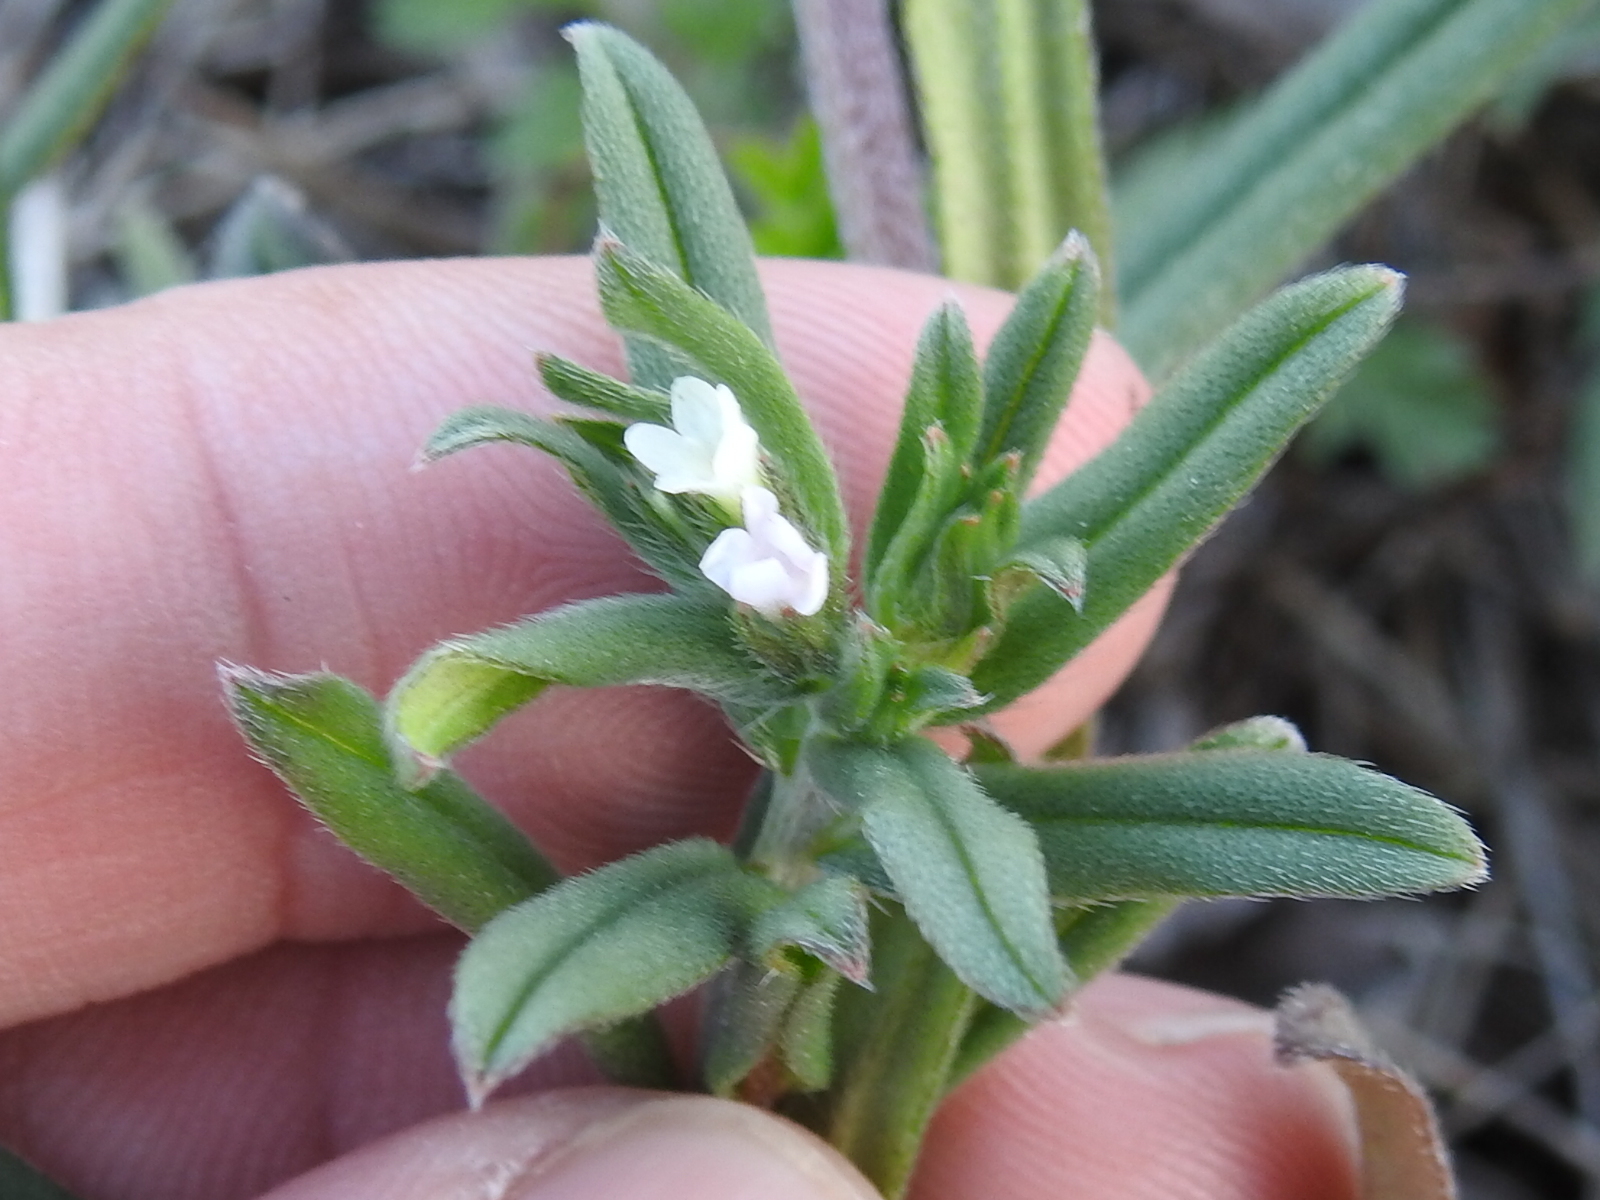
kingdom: Plantae
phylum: Tracheophyta
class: Magnoliopsida
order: Boraginales
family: Boraginaceae
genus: Buglossoides
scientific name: Buglossoides arvensis
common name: Corn gromwell
